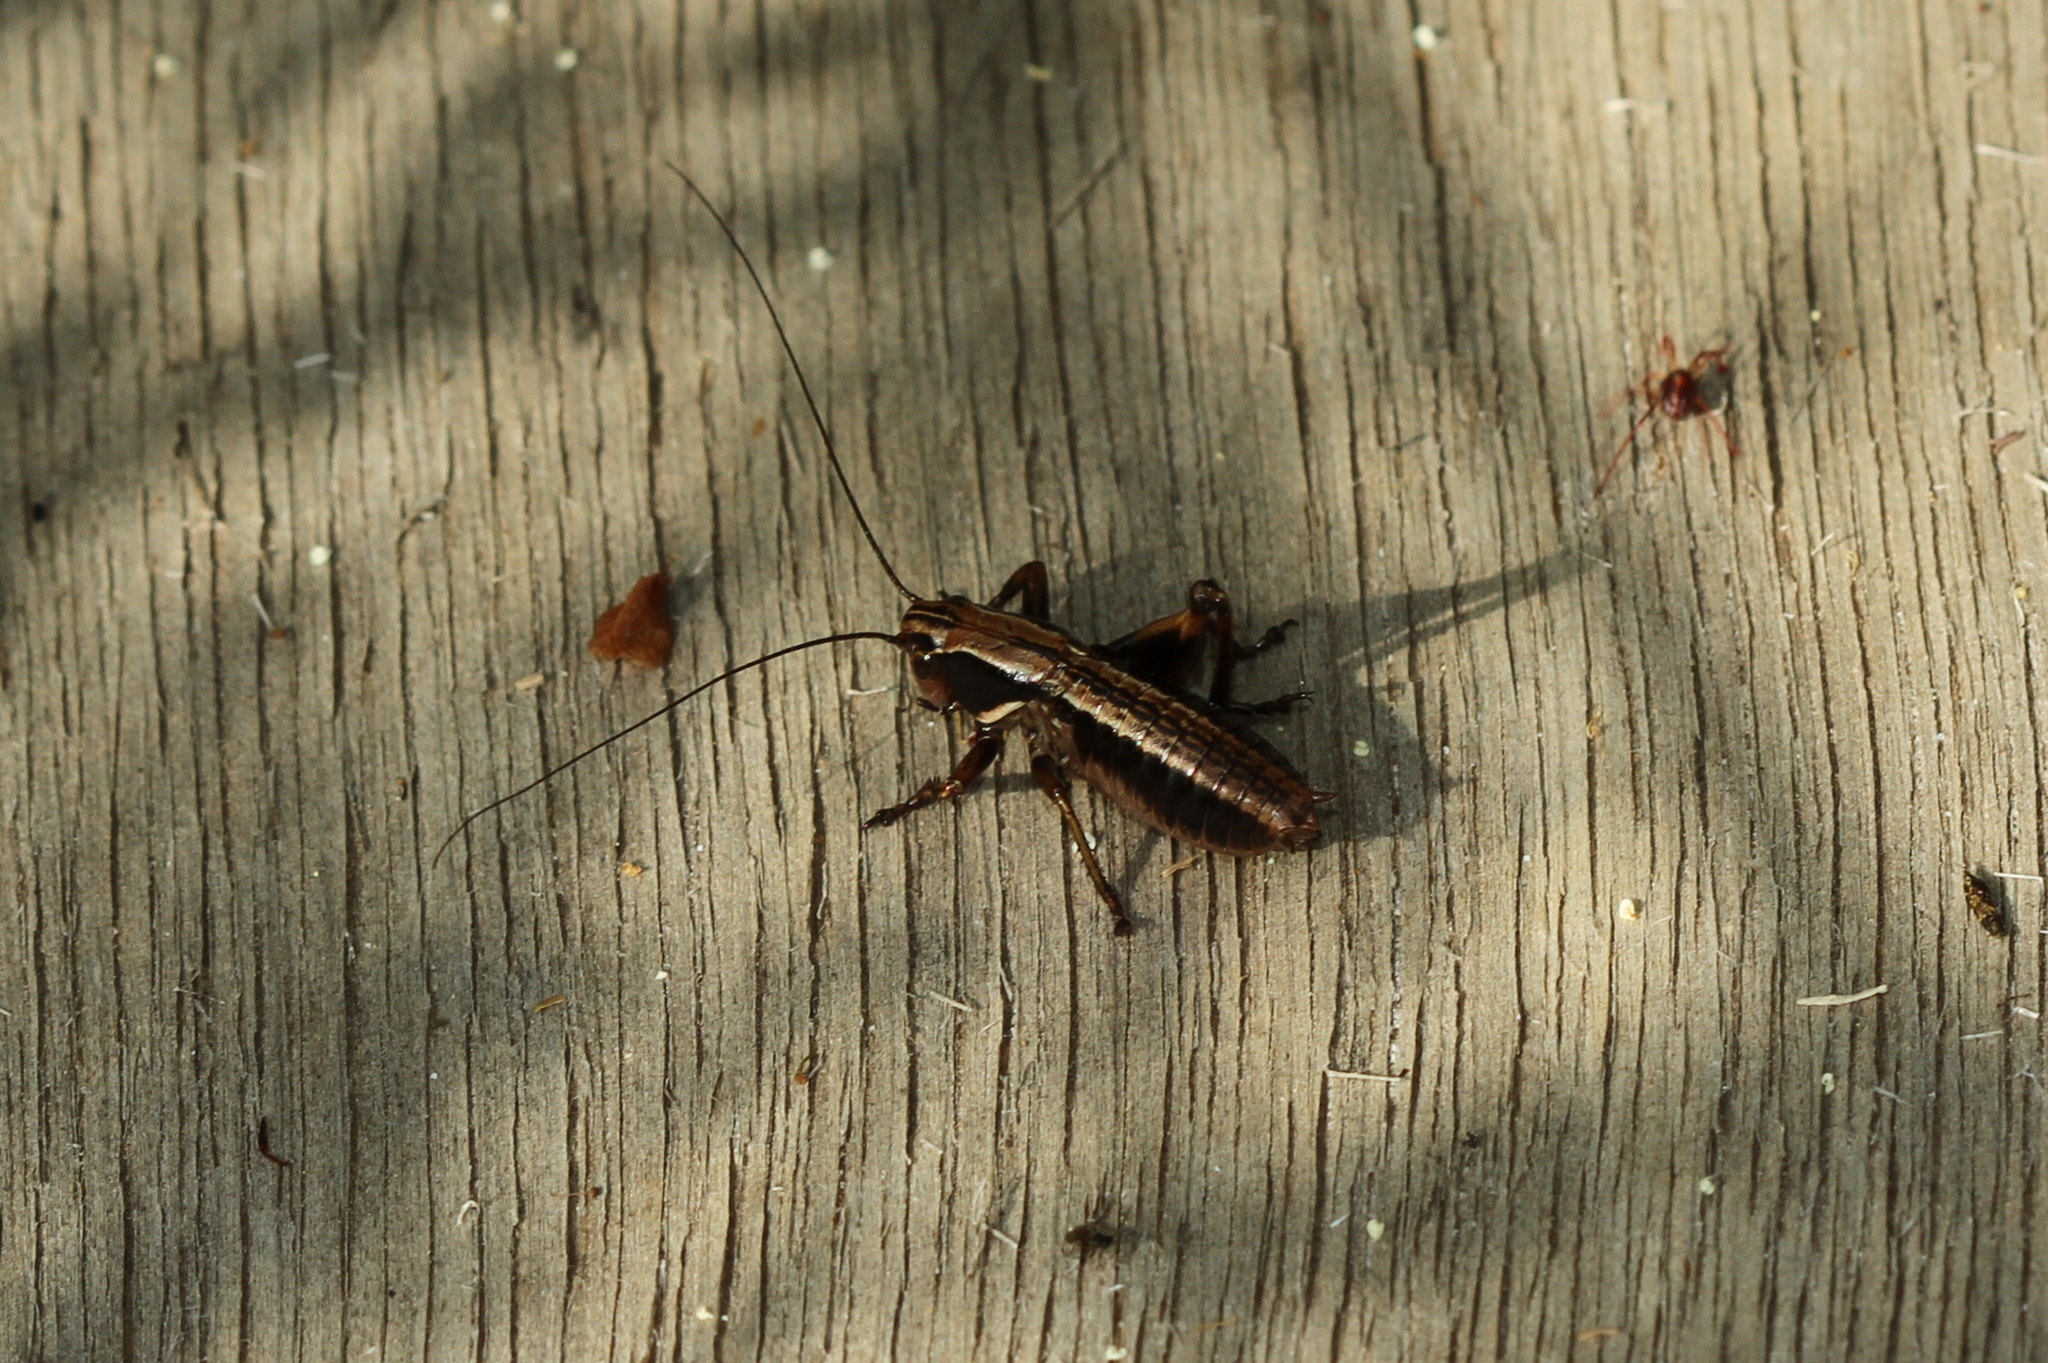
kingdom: Animalia
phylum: Arthropoda
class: Insecta
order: Orthoptera
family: Tettigoniidae
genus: Metrioptera
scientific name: Metrioptera saussuriana
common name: Purple meadow bush-cricket
